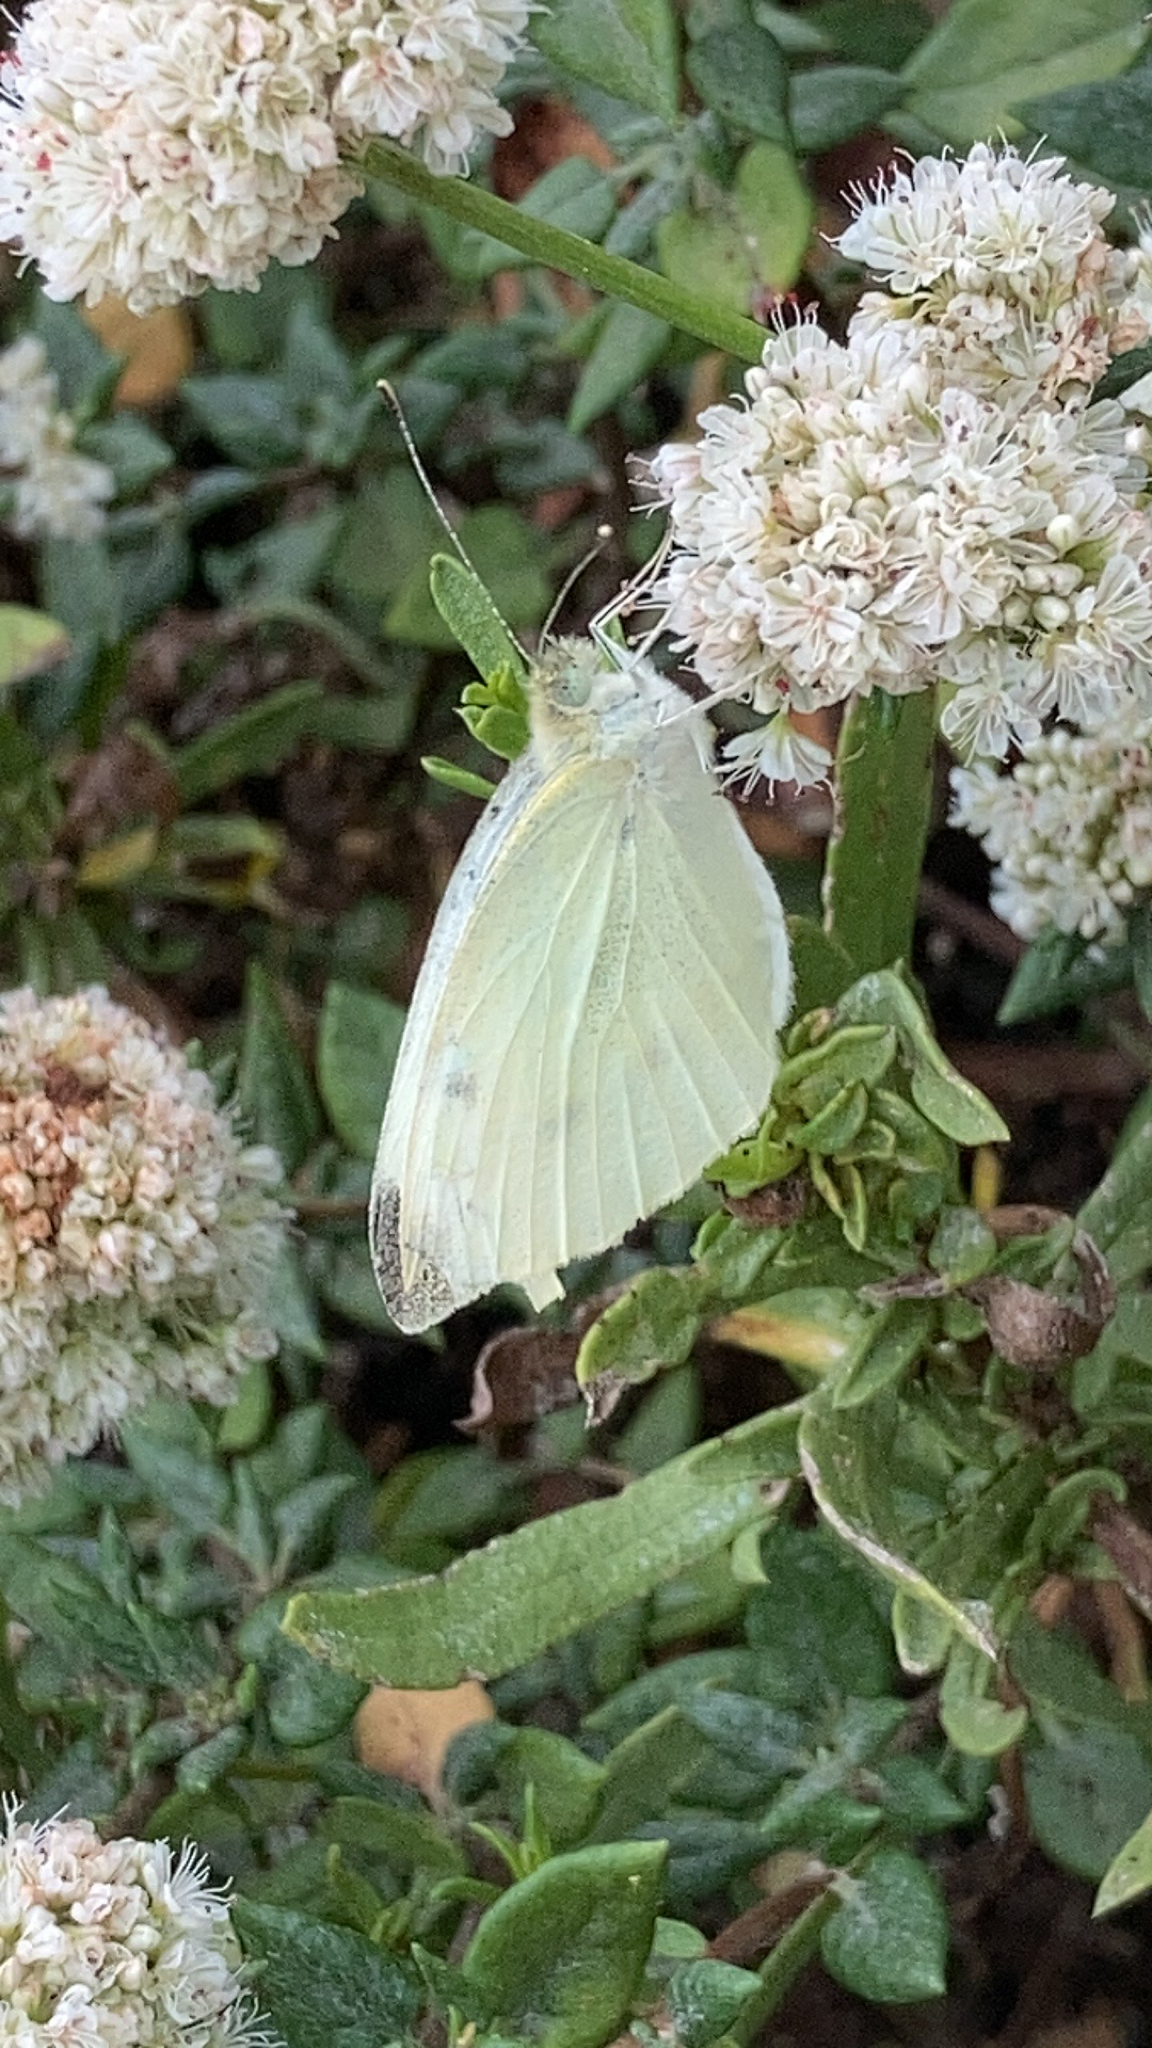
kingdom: Animalia
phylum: Arthropoda
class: Insecta
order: Lepidoptera
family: Pieridae
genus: Pieris
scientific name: Pieris rapae
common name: Small white
